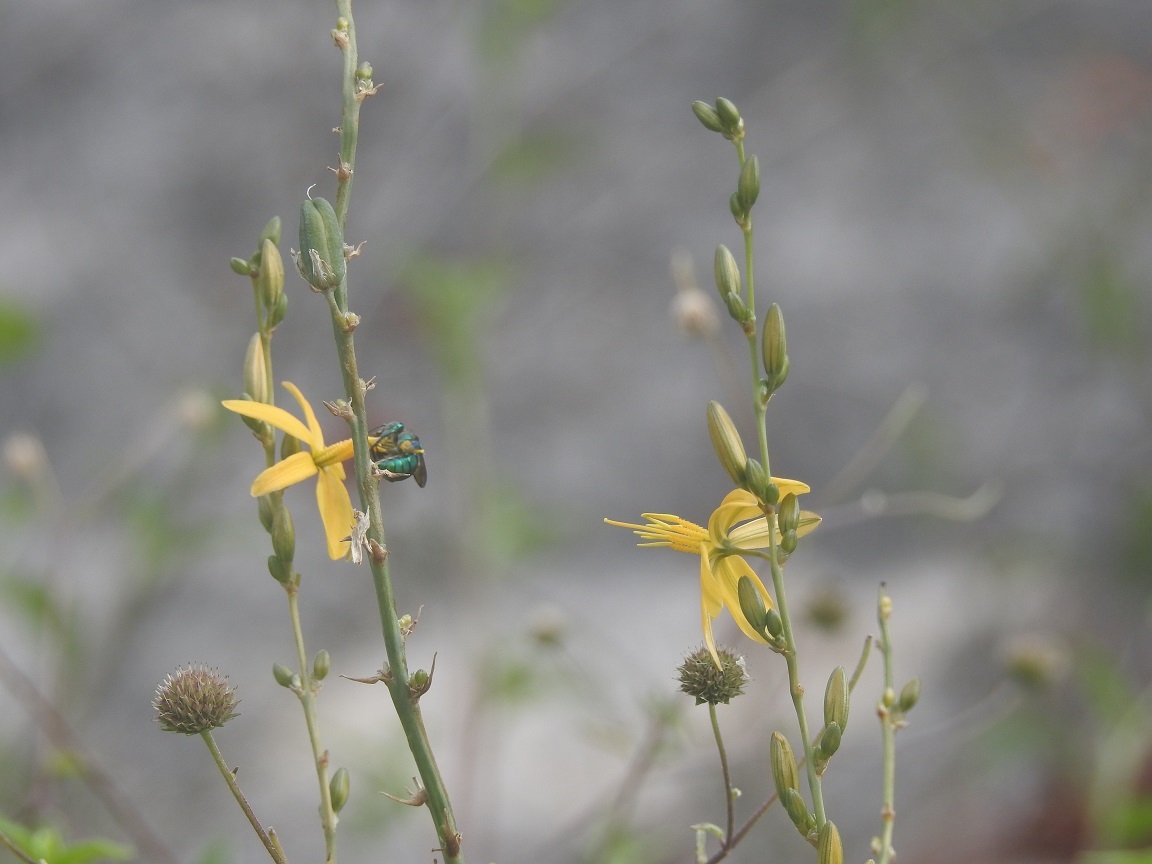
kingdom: Plantae
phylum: Tracheophyta
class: Liliopsida
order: Asparagales
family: Asparagaceae
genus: Echeandia
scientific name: Echeandia breedlovei
